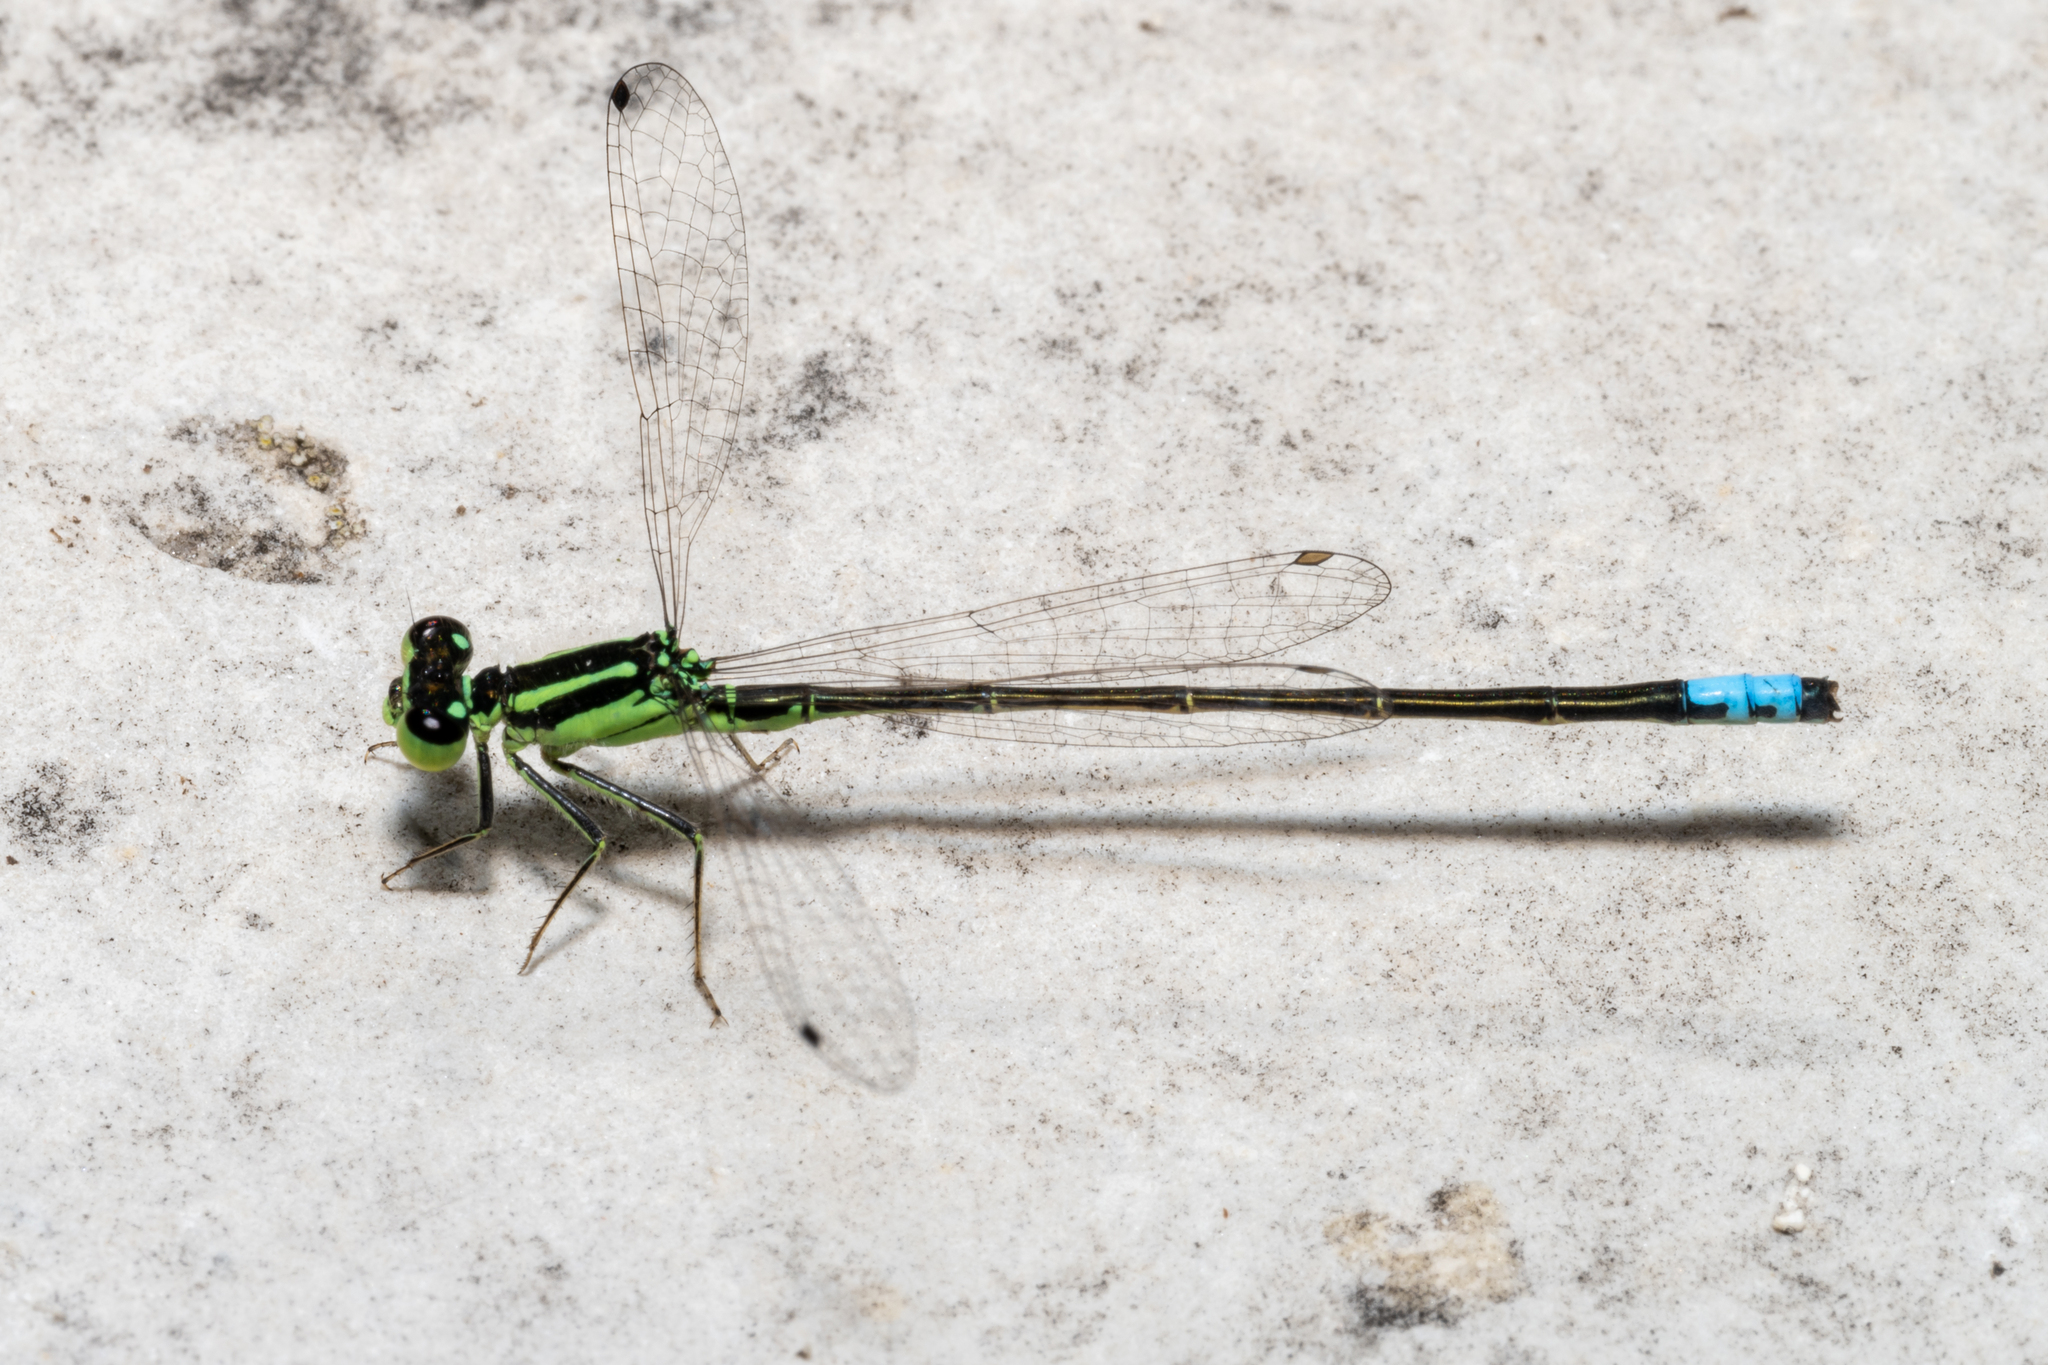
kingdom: Animalia
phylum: Arthropoda
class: Insecta
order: Odonata
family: Coenagrionidae
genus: Ischnura
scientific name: Ischnura verticalis
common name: Eastern forktail
